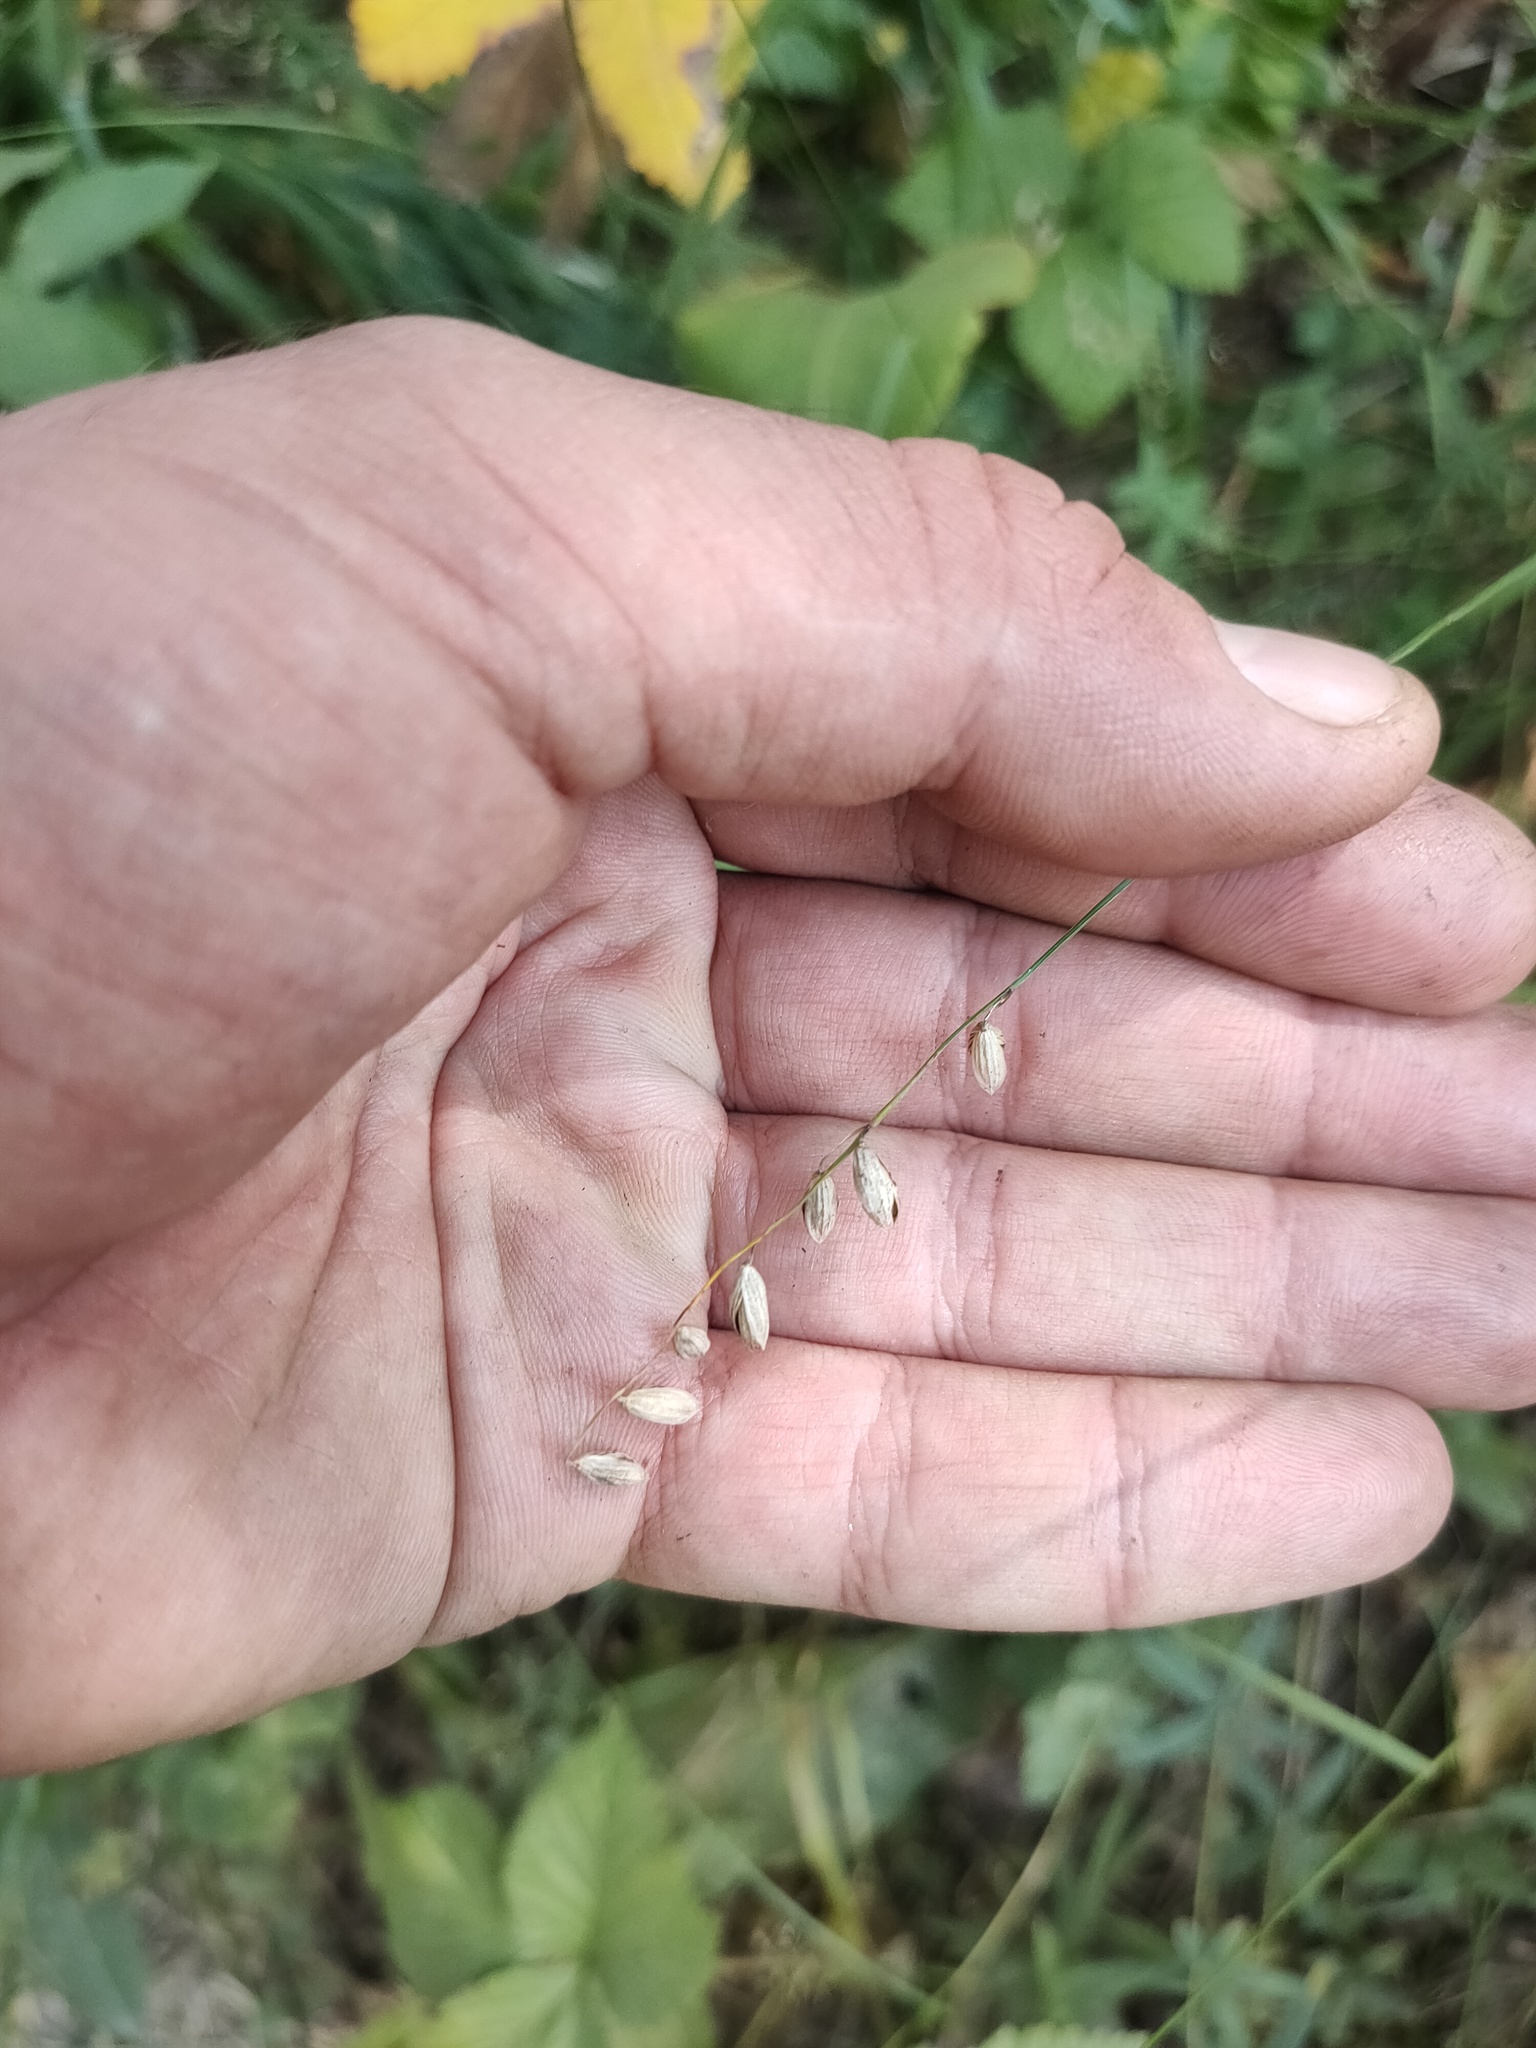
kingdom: Plantae
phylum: Tracheophyta
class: Liliopsida
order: Poales
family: Poaceae
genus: Melica
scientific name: Melica nutans
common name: Mountain melick
